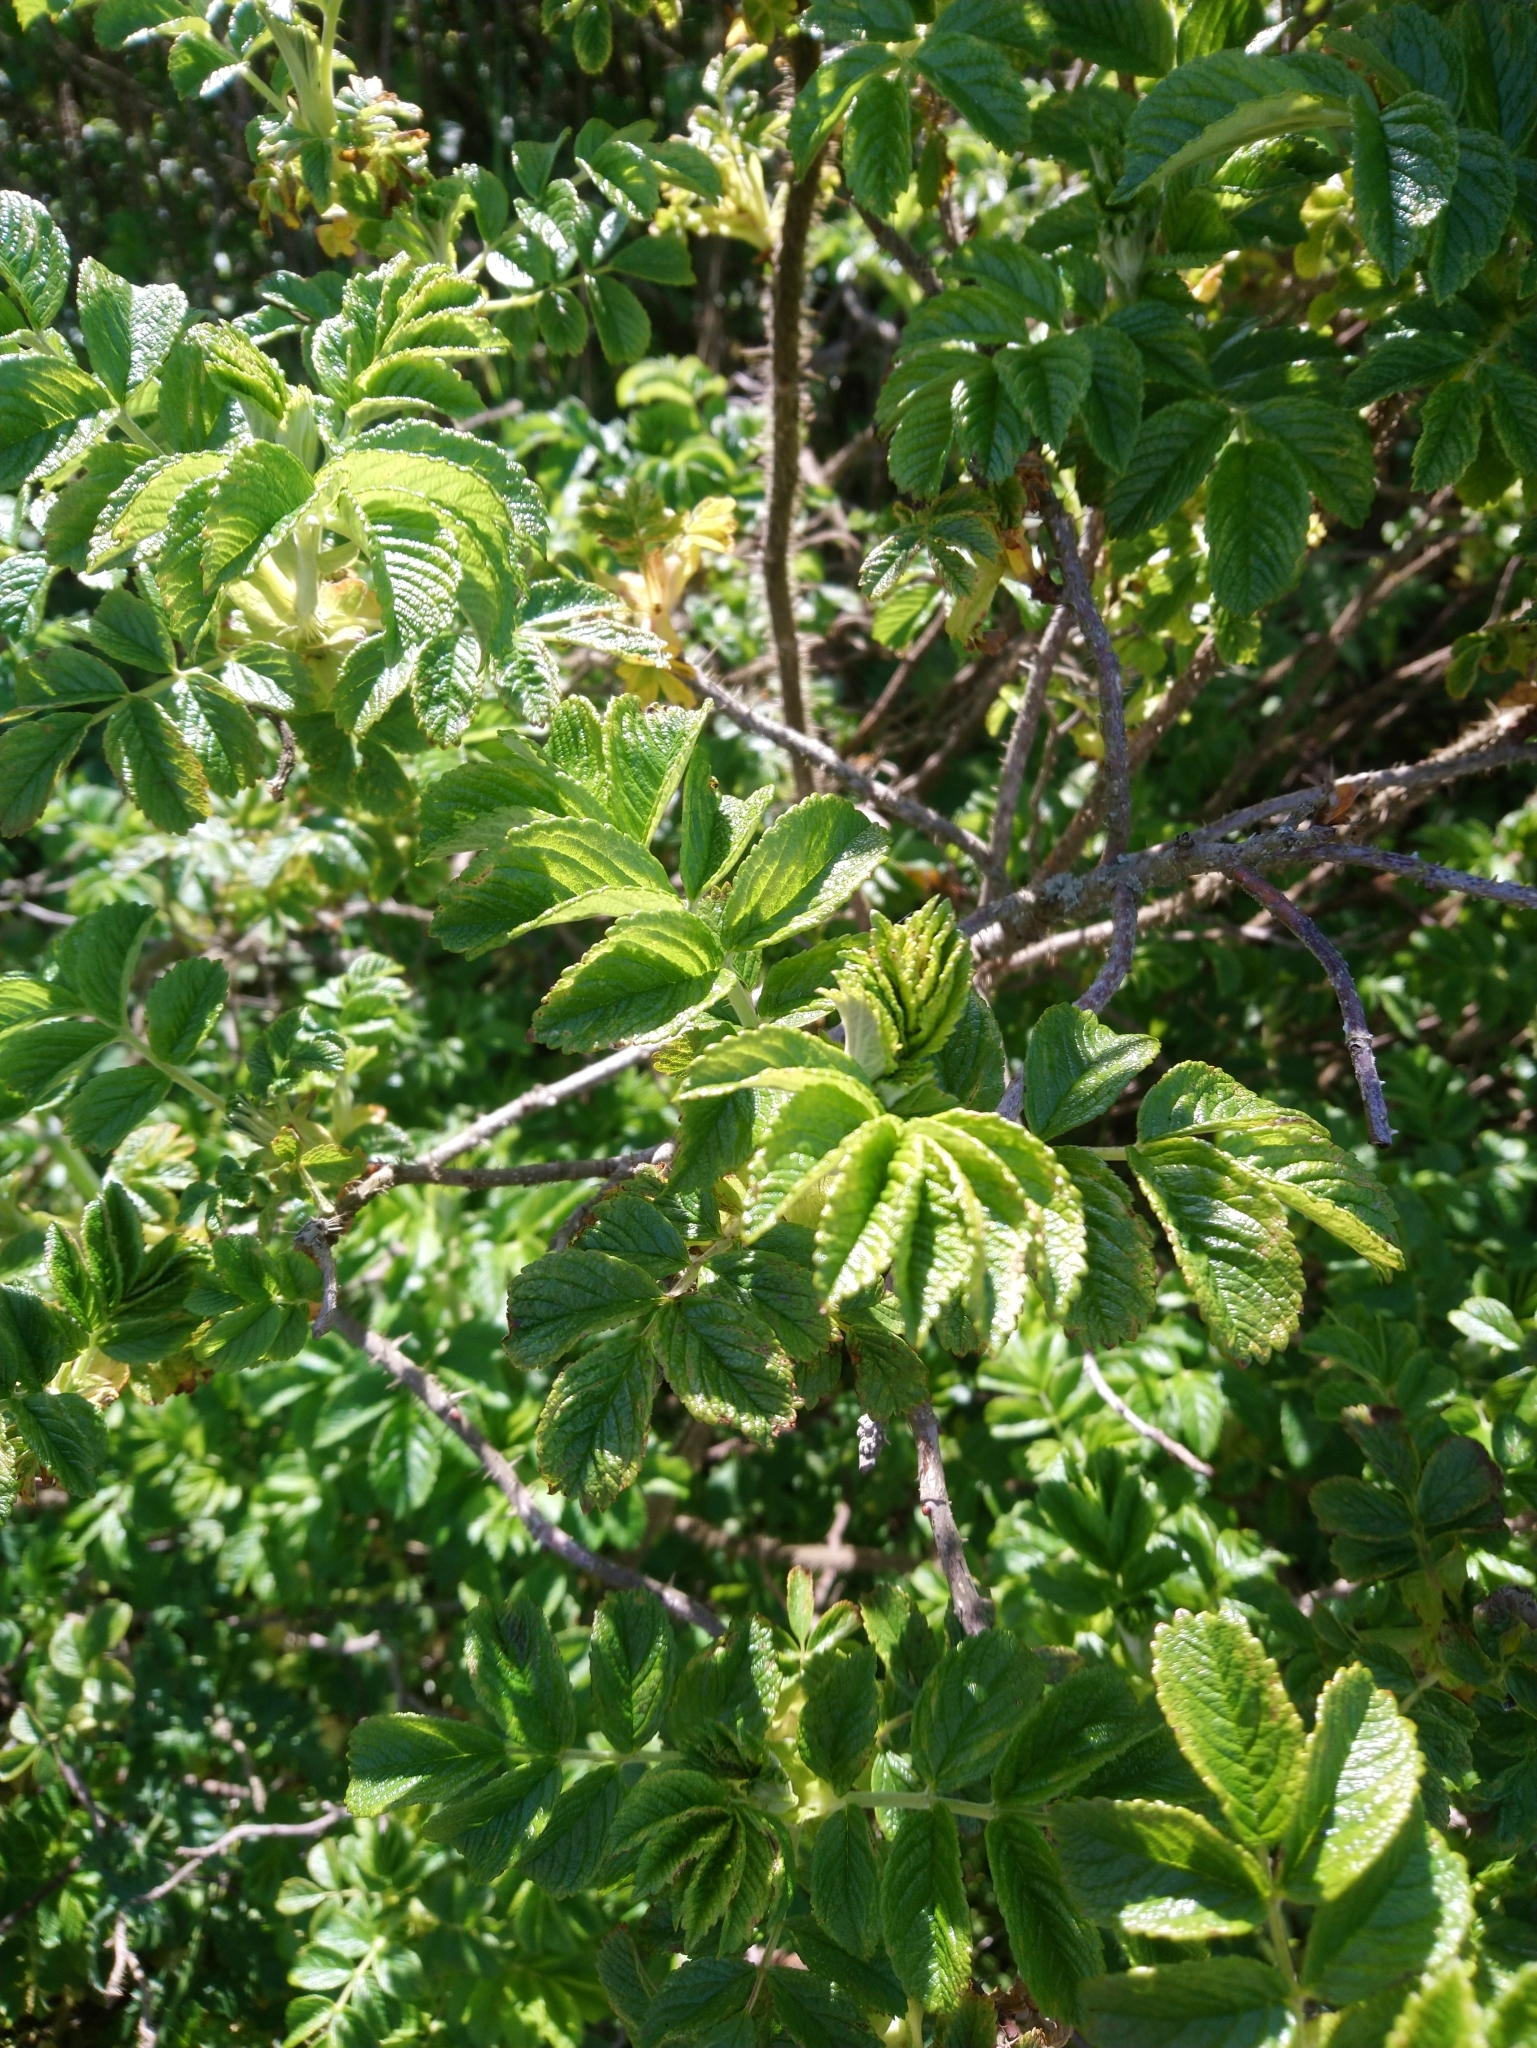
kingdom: Plantae
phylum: Tracheophyta
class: Magnoliopsida
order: Rosales
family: Rosaceae
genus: Rosa
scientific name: Rosa rugosa
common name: Japanese rose
